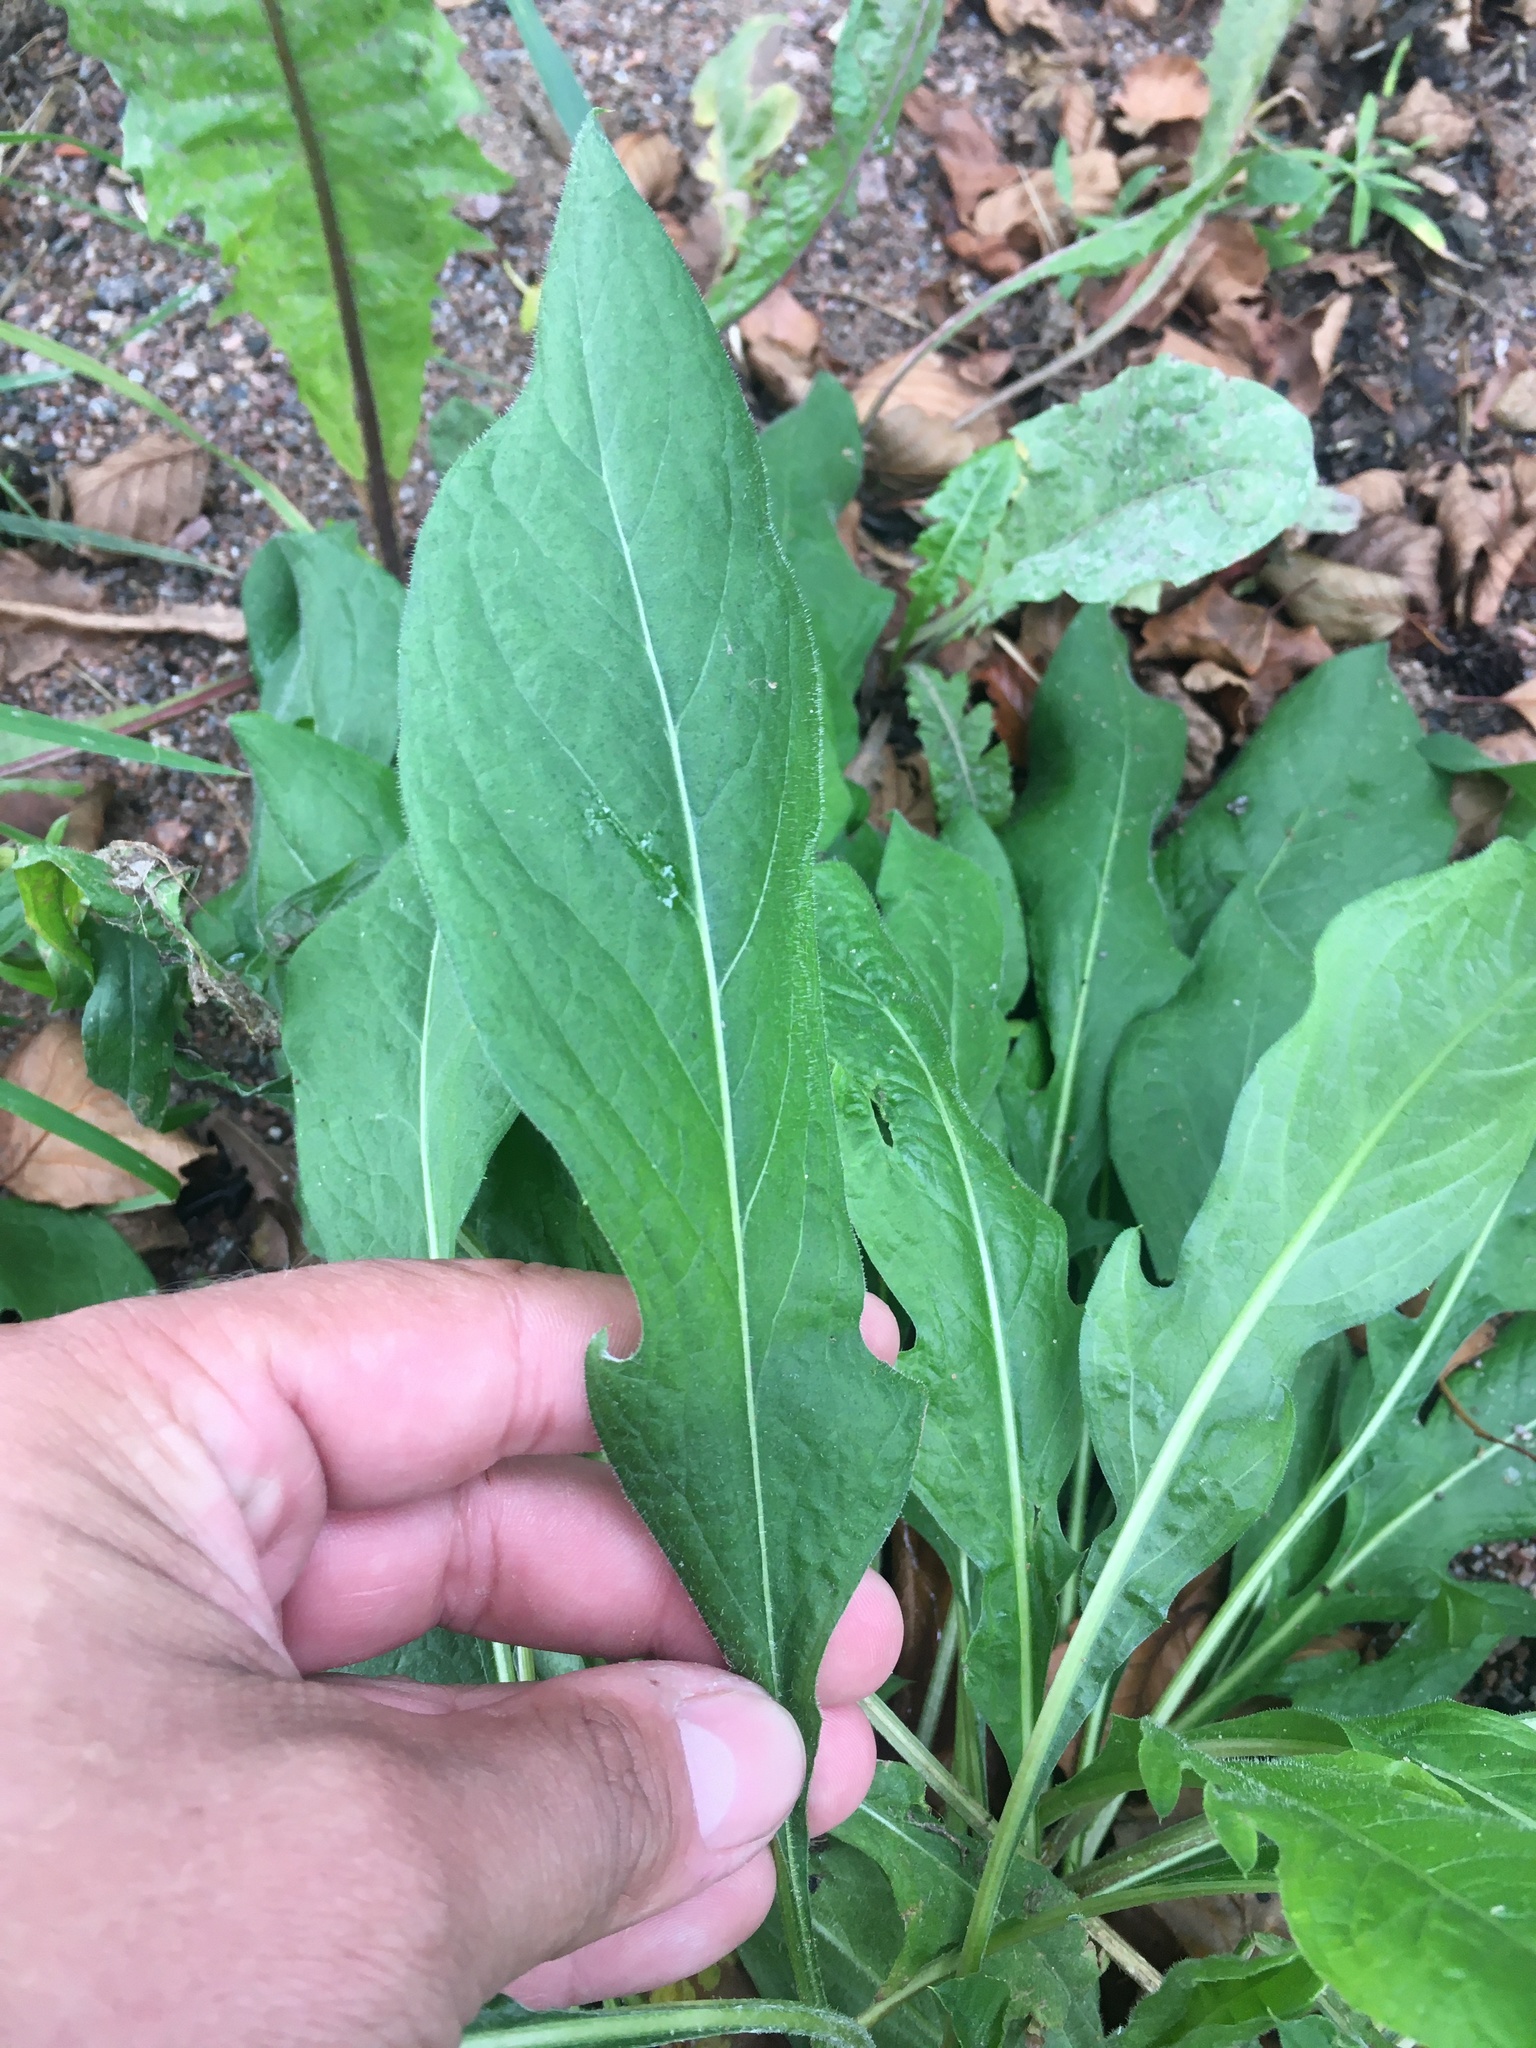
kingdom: Plantae
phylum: Tracheophyta
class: Magnoliopsida
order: Asterales
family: Asteraceae
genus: Solidago
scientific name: Solidago virgaurea
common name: Goldenrod
